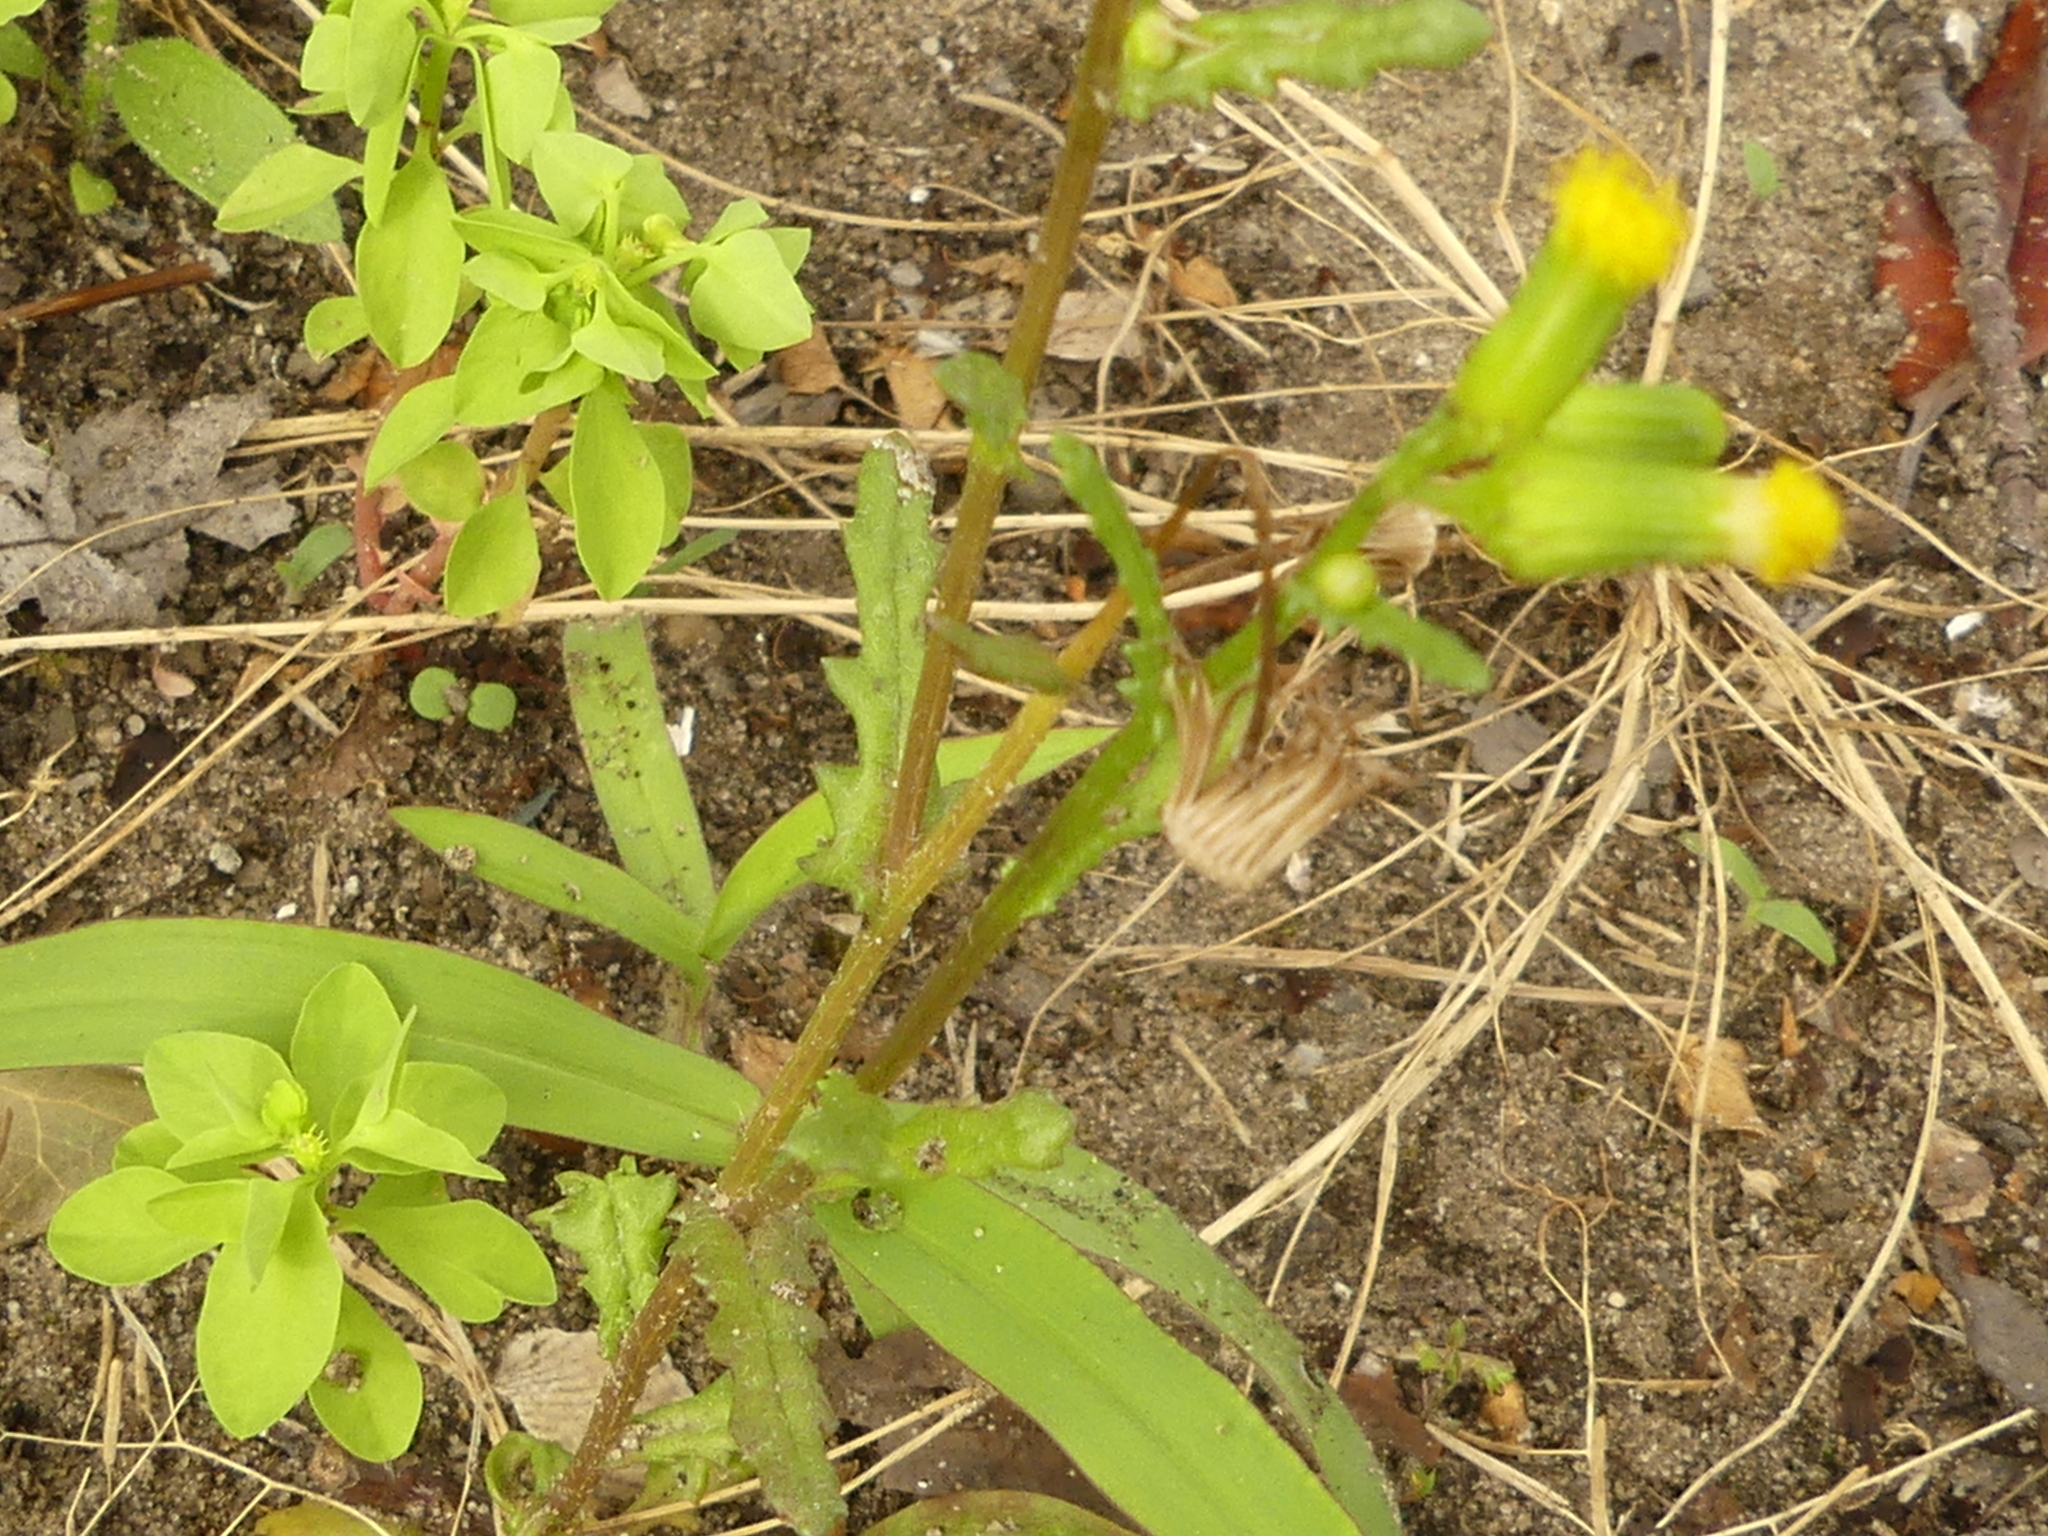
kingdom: Plantae
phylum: Tracheophyta
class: Magnoliopsida
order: Asterales
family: Asteraceae
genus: Senecio
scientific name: Senecio vulgaris
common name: Old-man-in-the-spring
